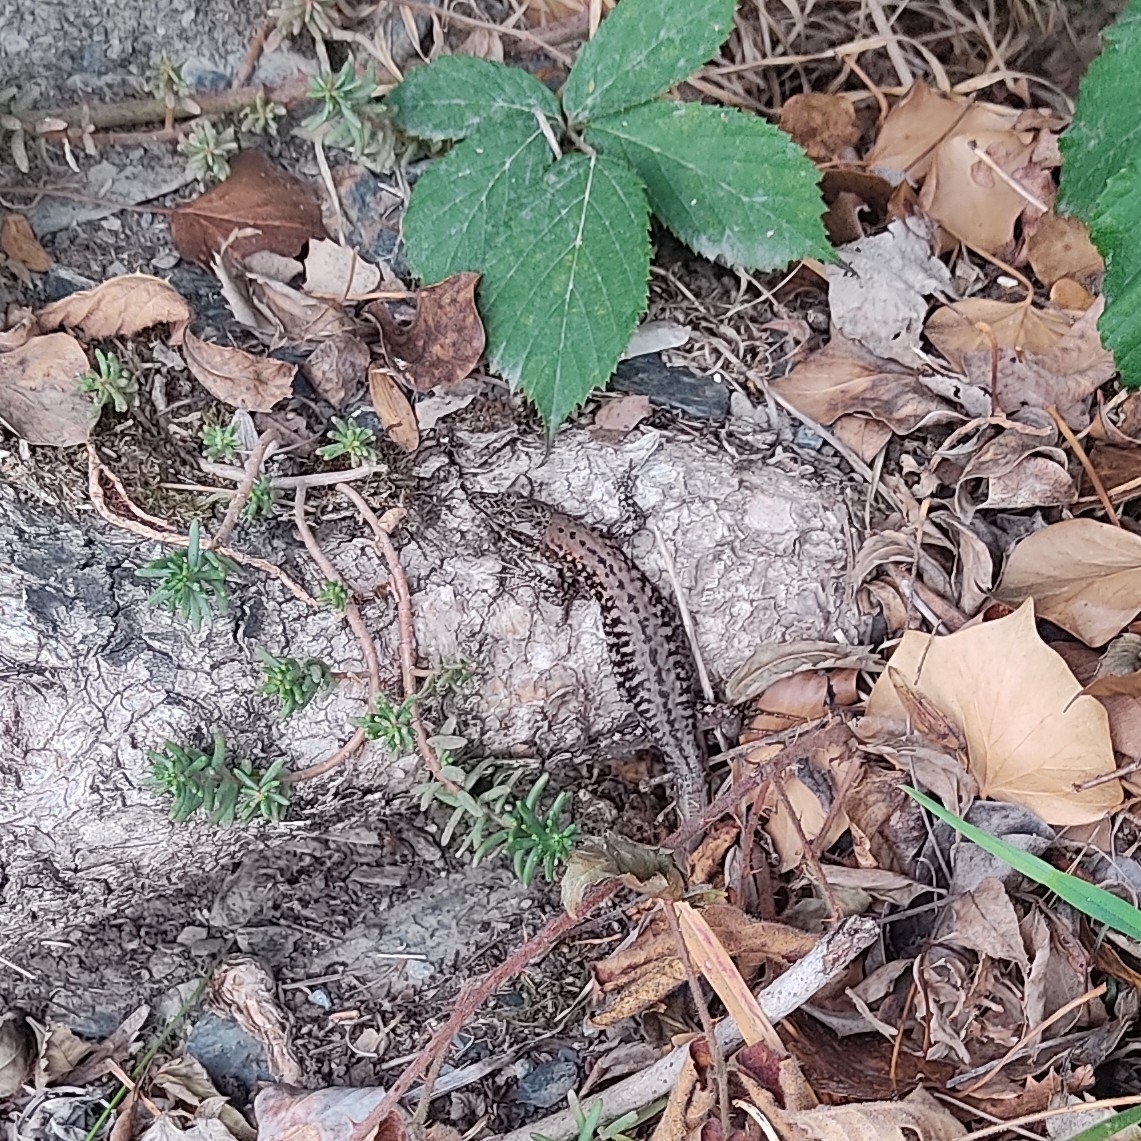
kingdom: Animalia
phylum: Chordata
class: Squamata
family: Lacertidae
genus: Podarcis
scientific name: Podarcis muralis
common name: Common wall lizard
